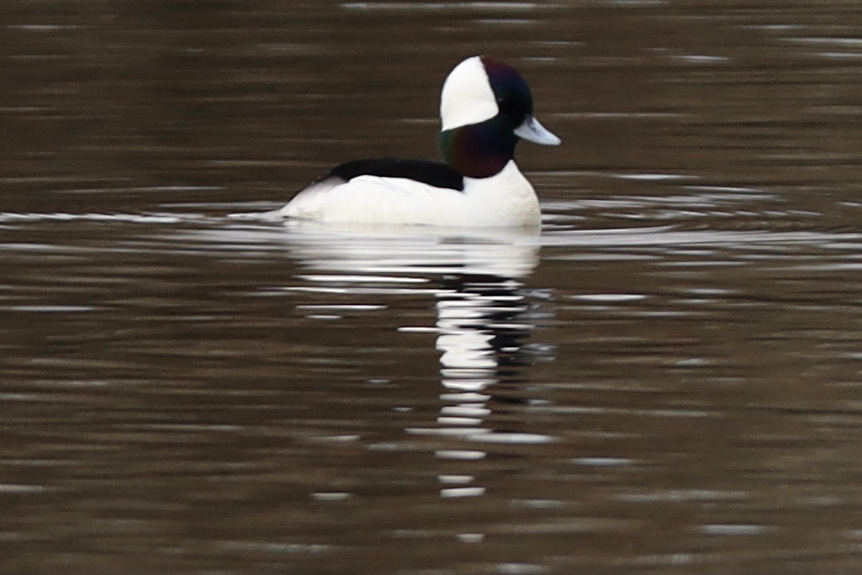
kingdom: Animalia
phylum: Chordata
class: Aves
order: Anseriformes
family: Anatidae
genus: Bucephala
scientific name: Bucephala albeola
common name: Bufflehead
